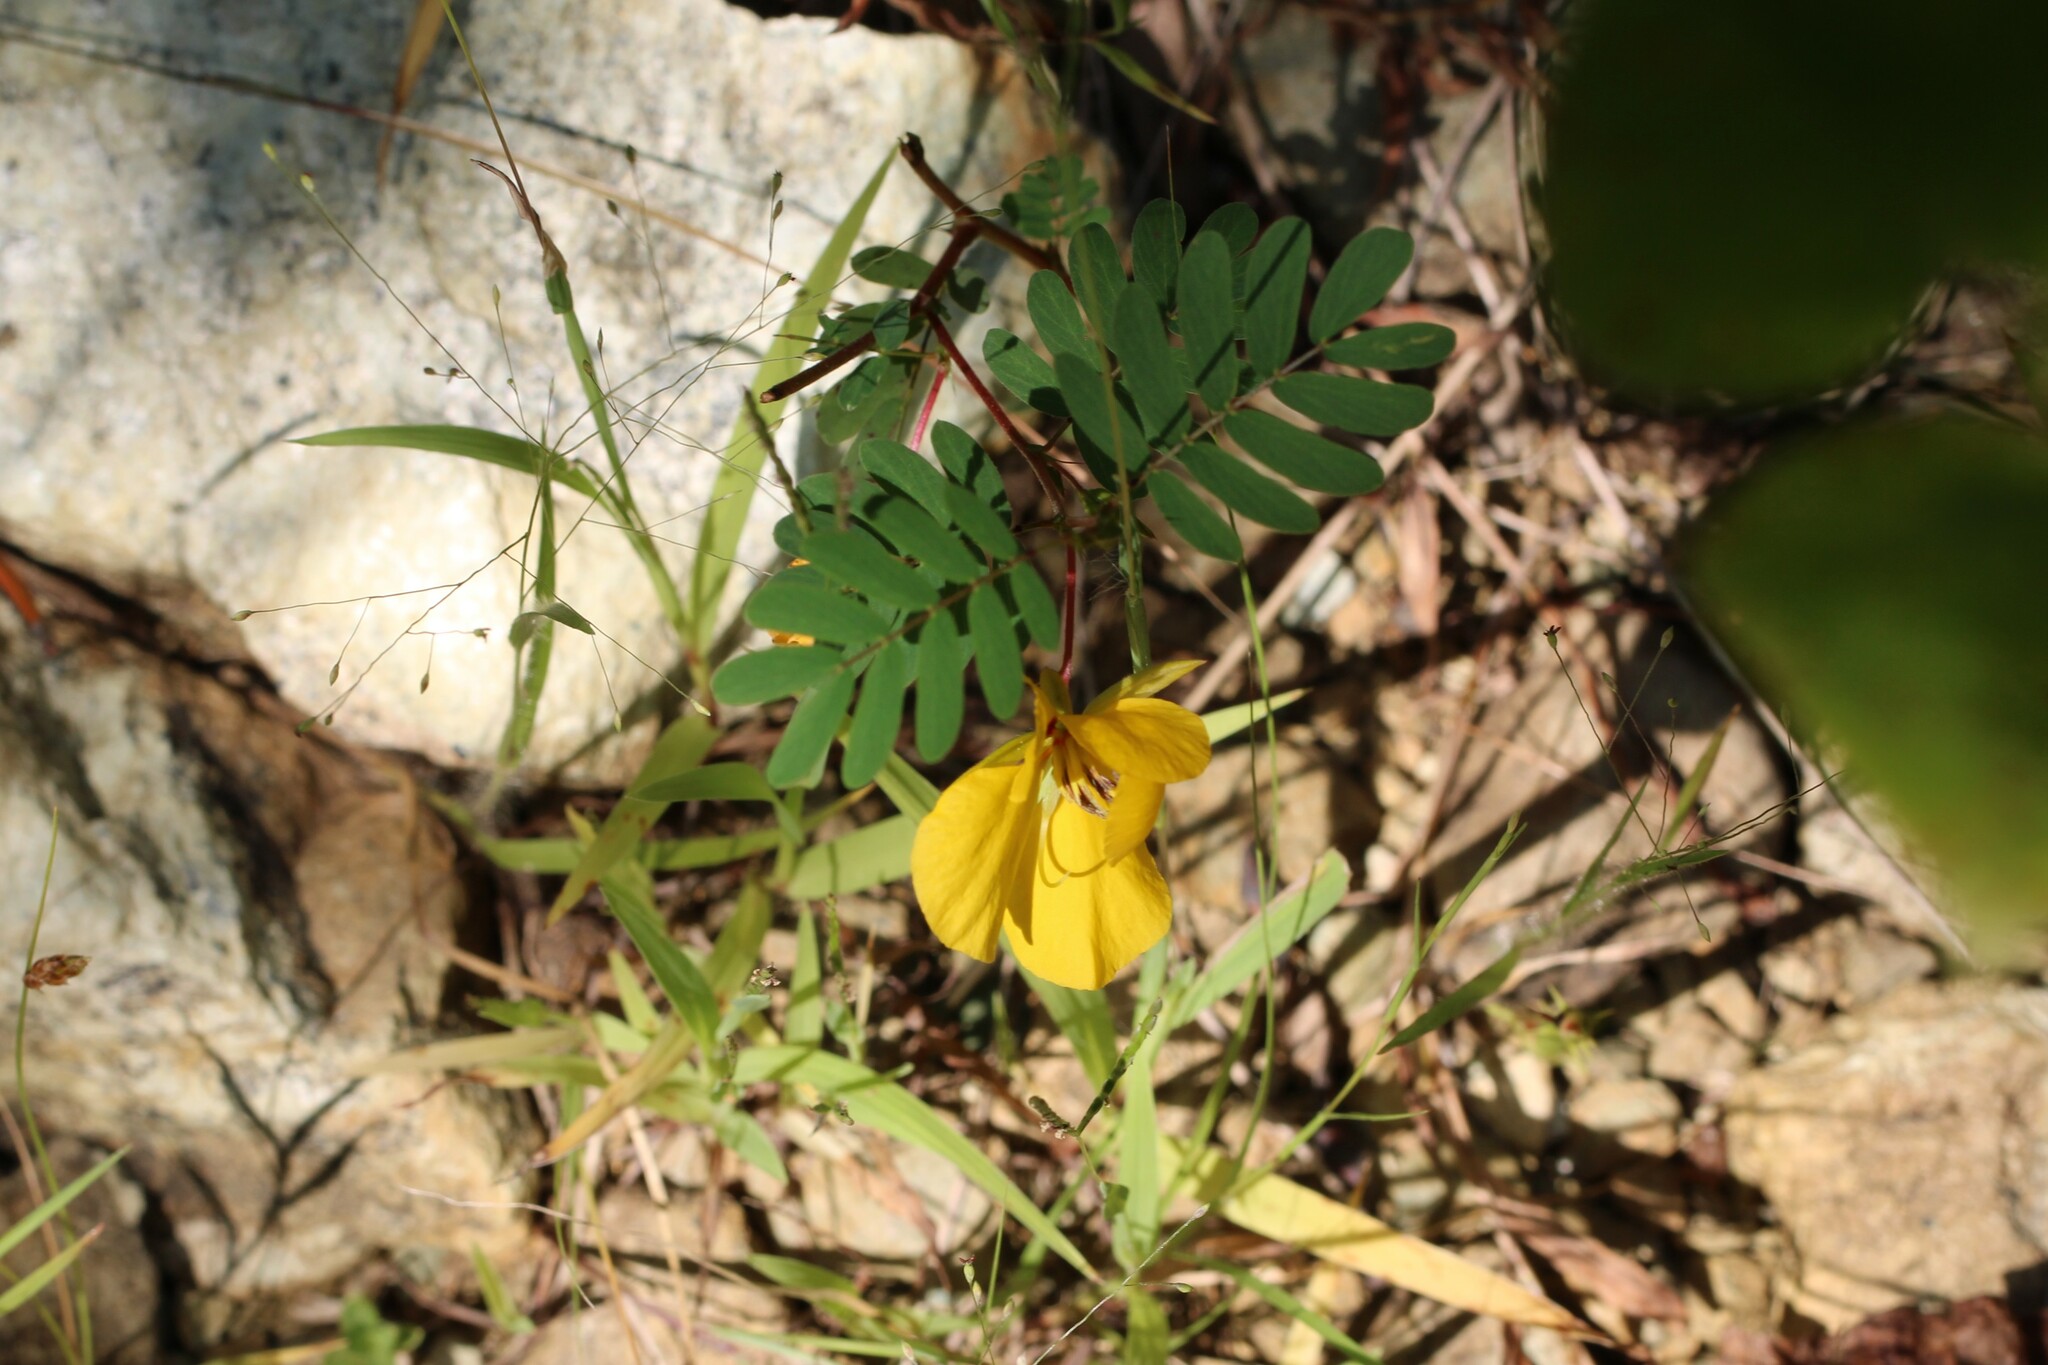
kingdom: Plantae
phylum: Tracheophyta
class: Magnoliopsida
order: Fabales
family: Fabaceae
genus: Chamaecrista
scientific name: Chamaecrista fasciculata
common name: Golden cassia
